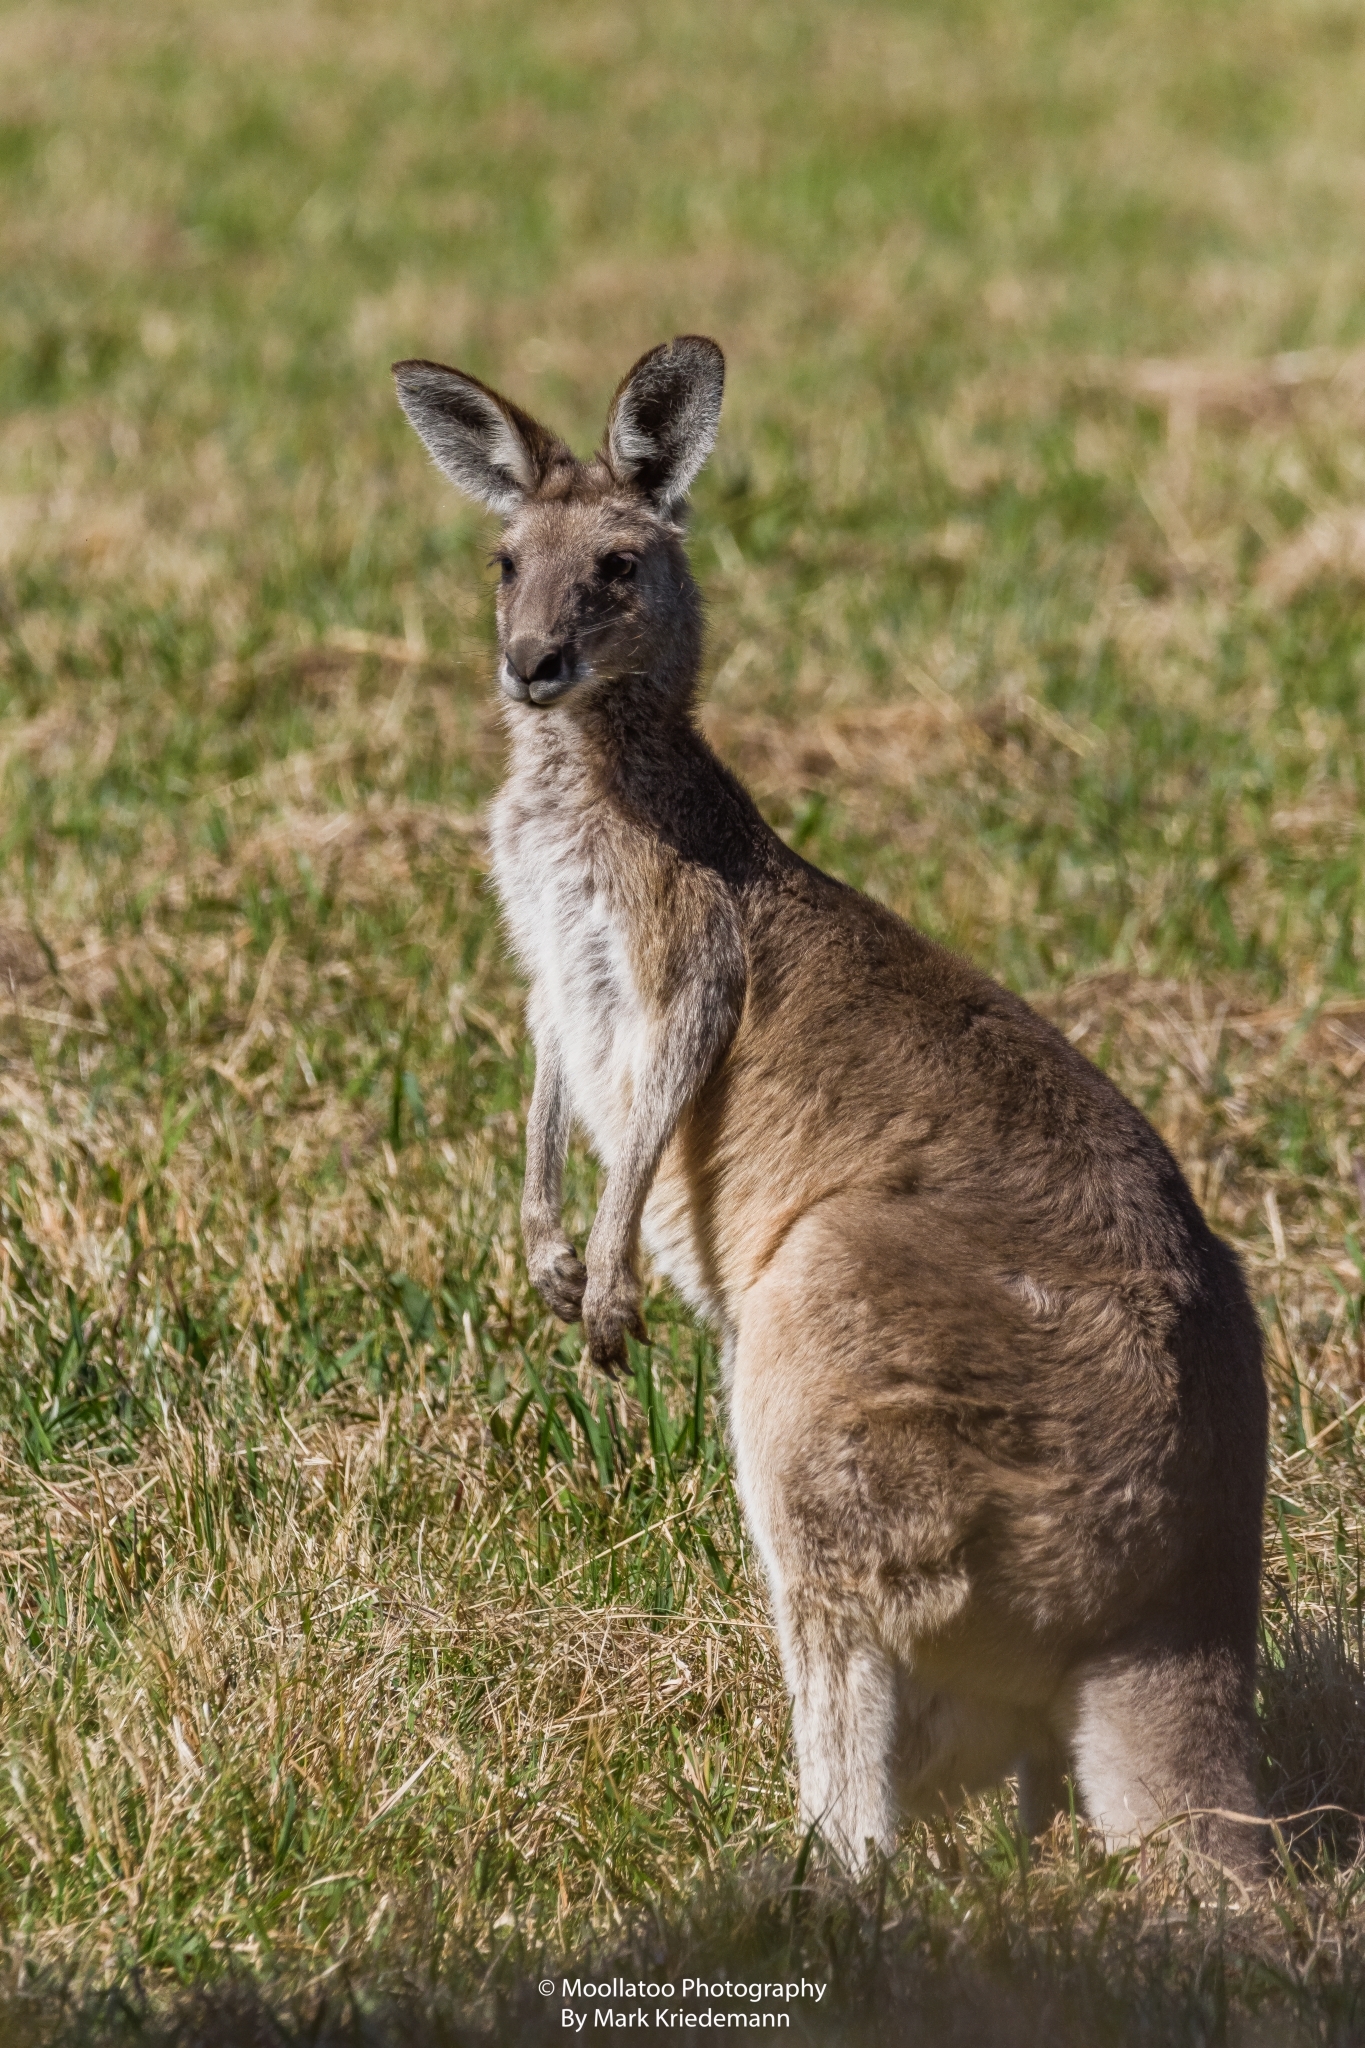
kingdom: Animalia
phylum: Chordata
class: Mammalia
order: Diprotodontia
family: Macropodidae
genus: Macropus
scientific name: Macropus giganteus
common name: Eastern grey kangaroo
